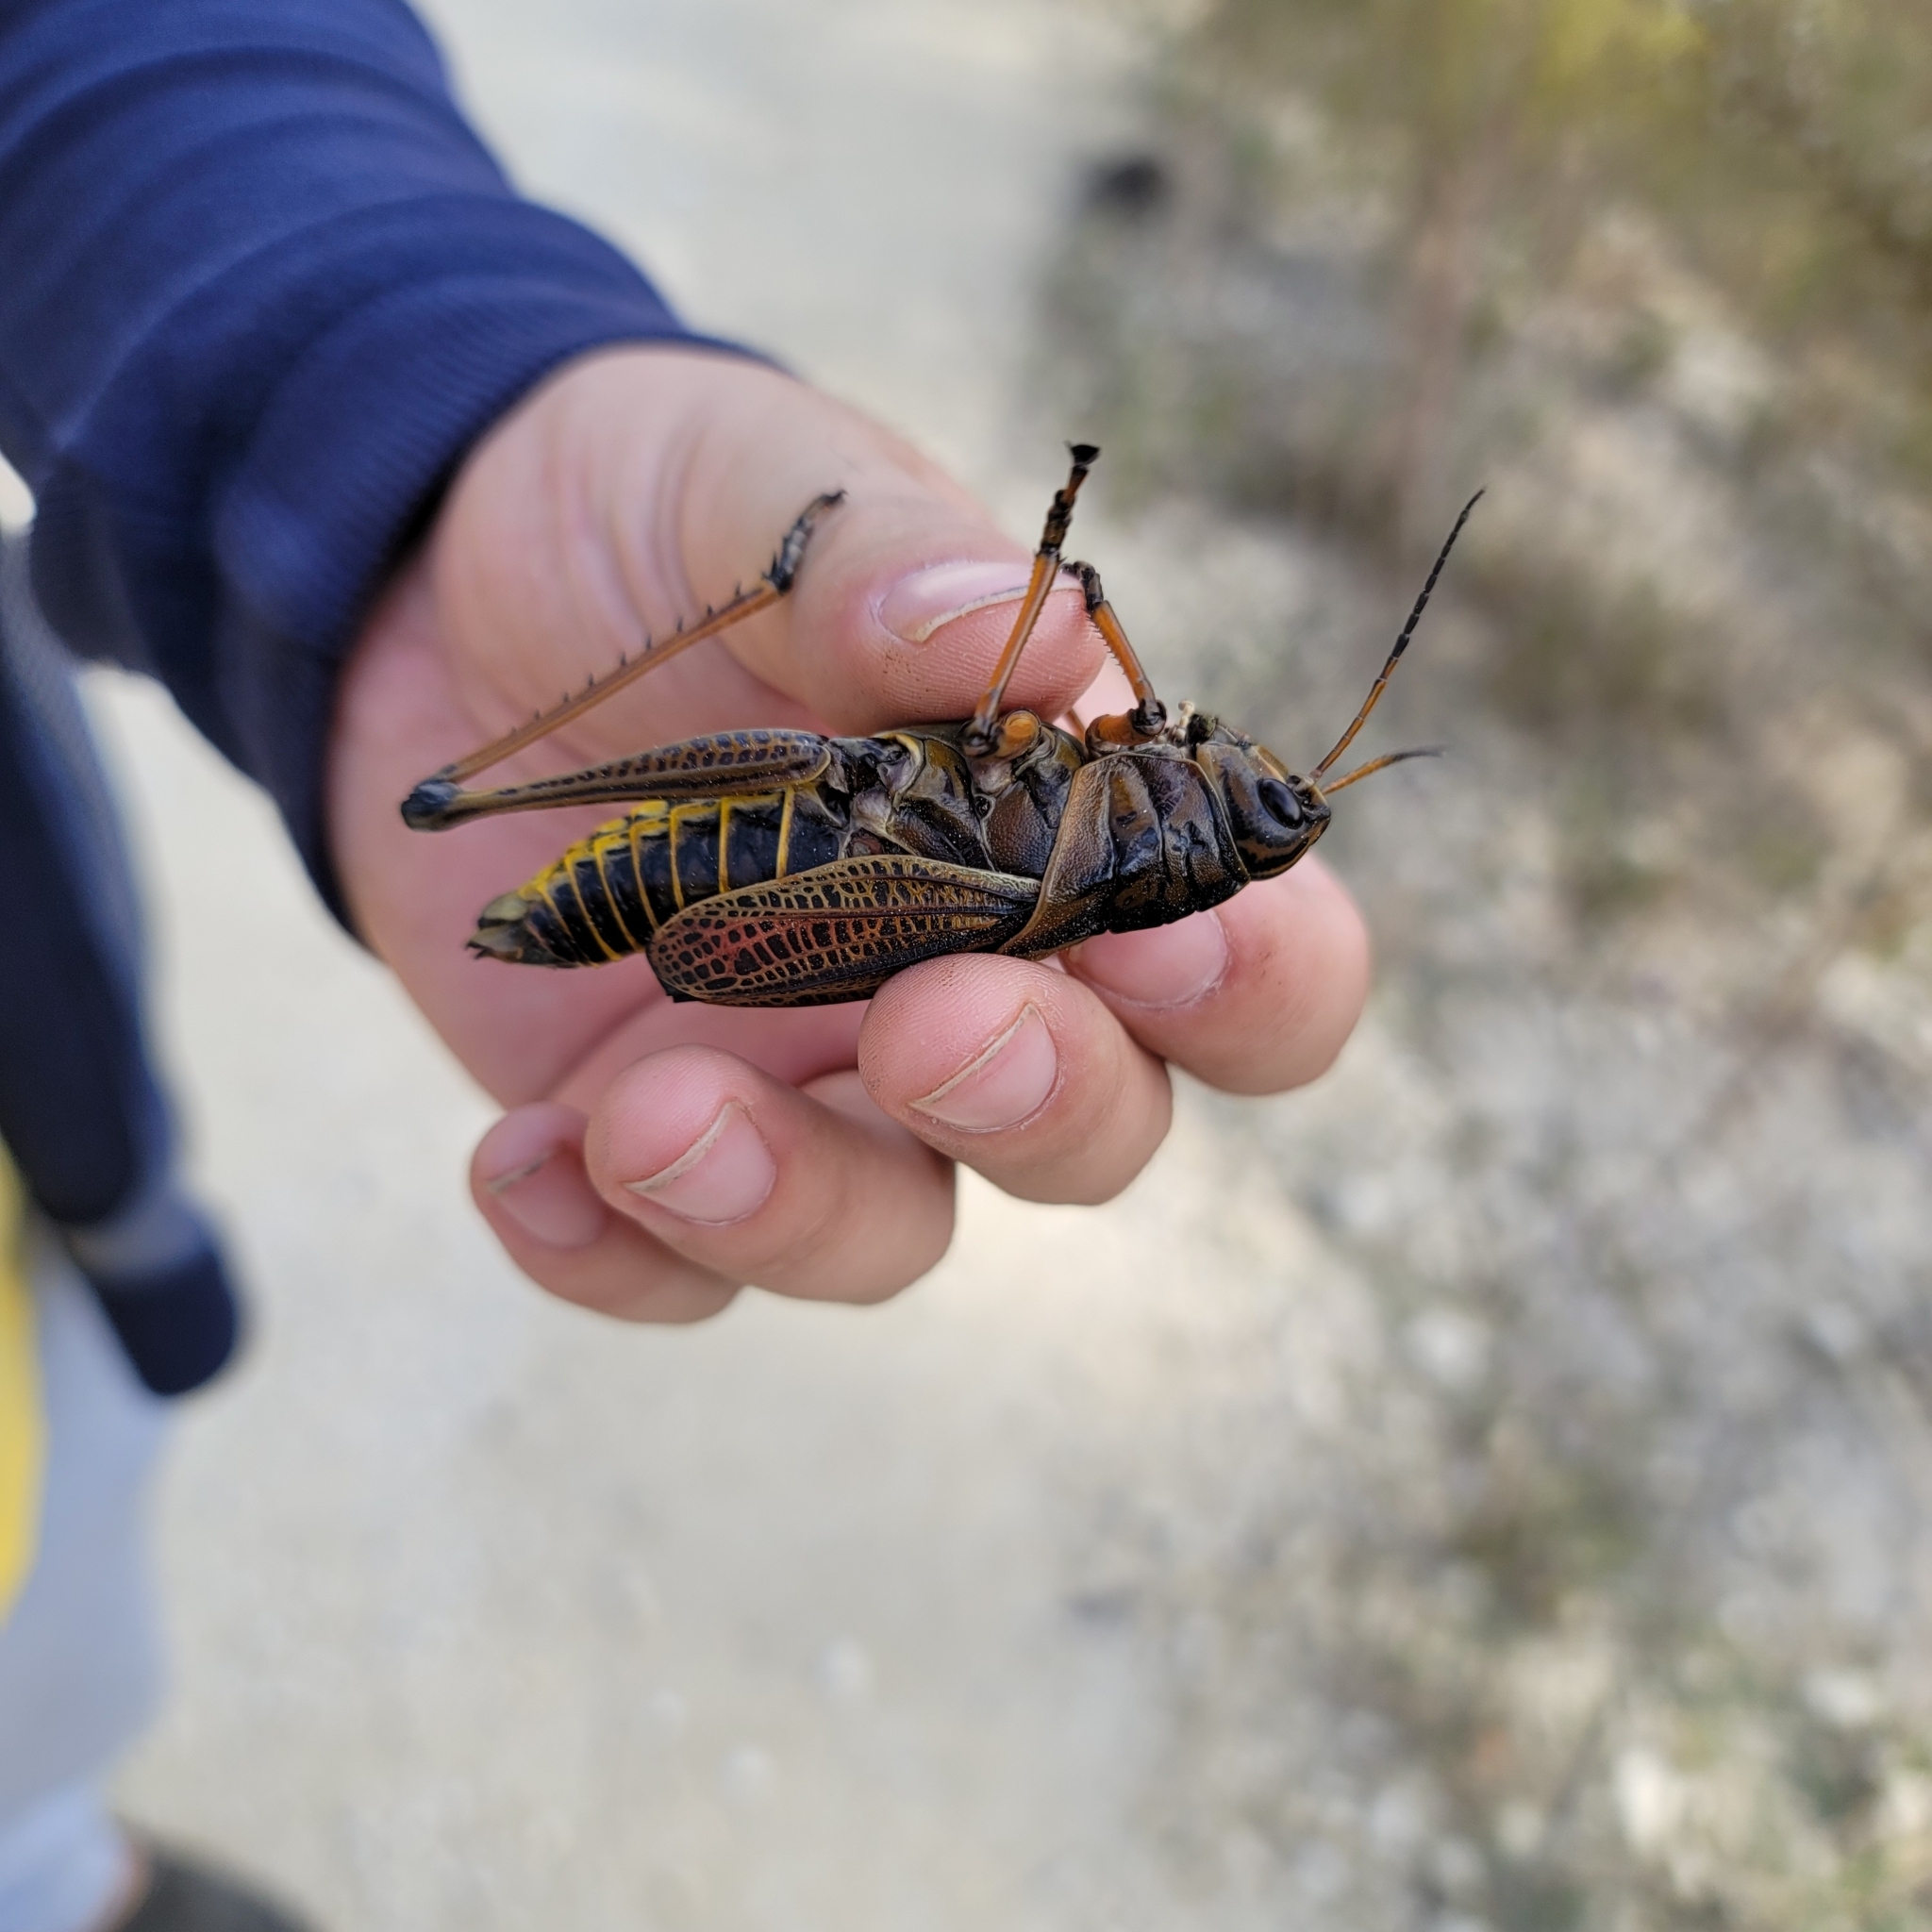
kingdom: Animalia
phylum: Arthropoda
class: Insecta
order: Orthoptera
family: Romaleidae
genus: Romalea
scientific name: Romalea microptera
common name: Eastern lubber grasshopper
